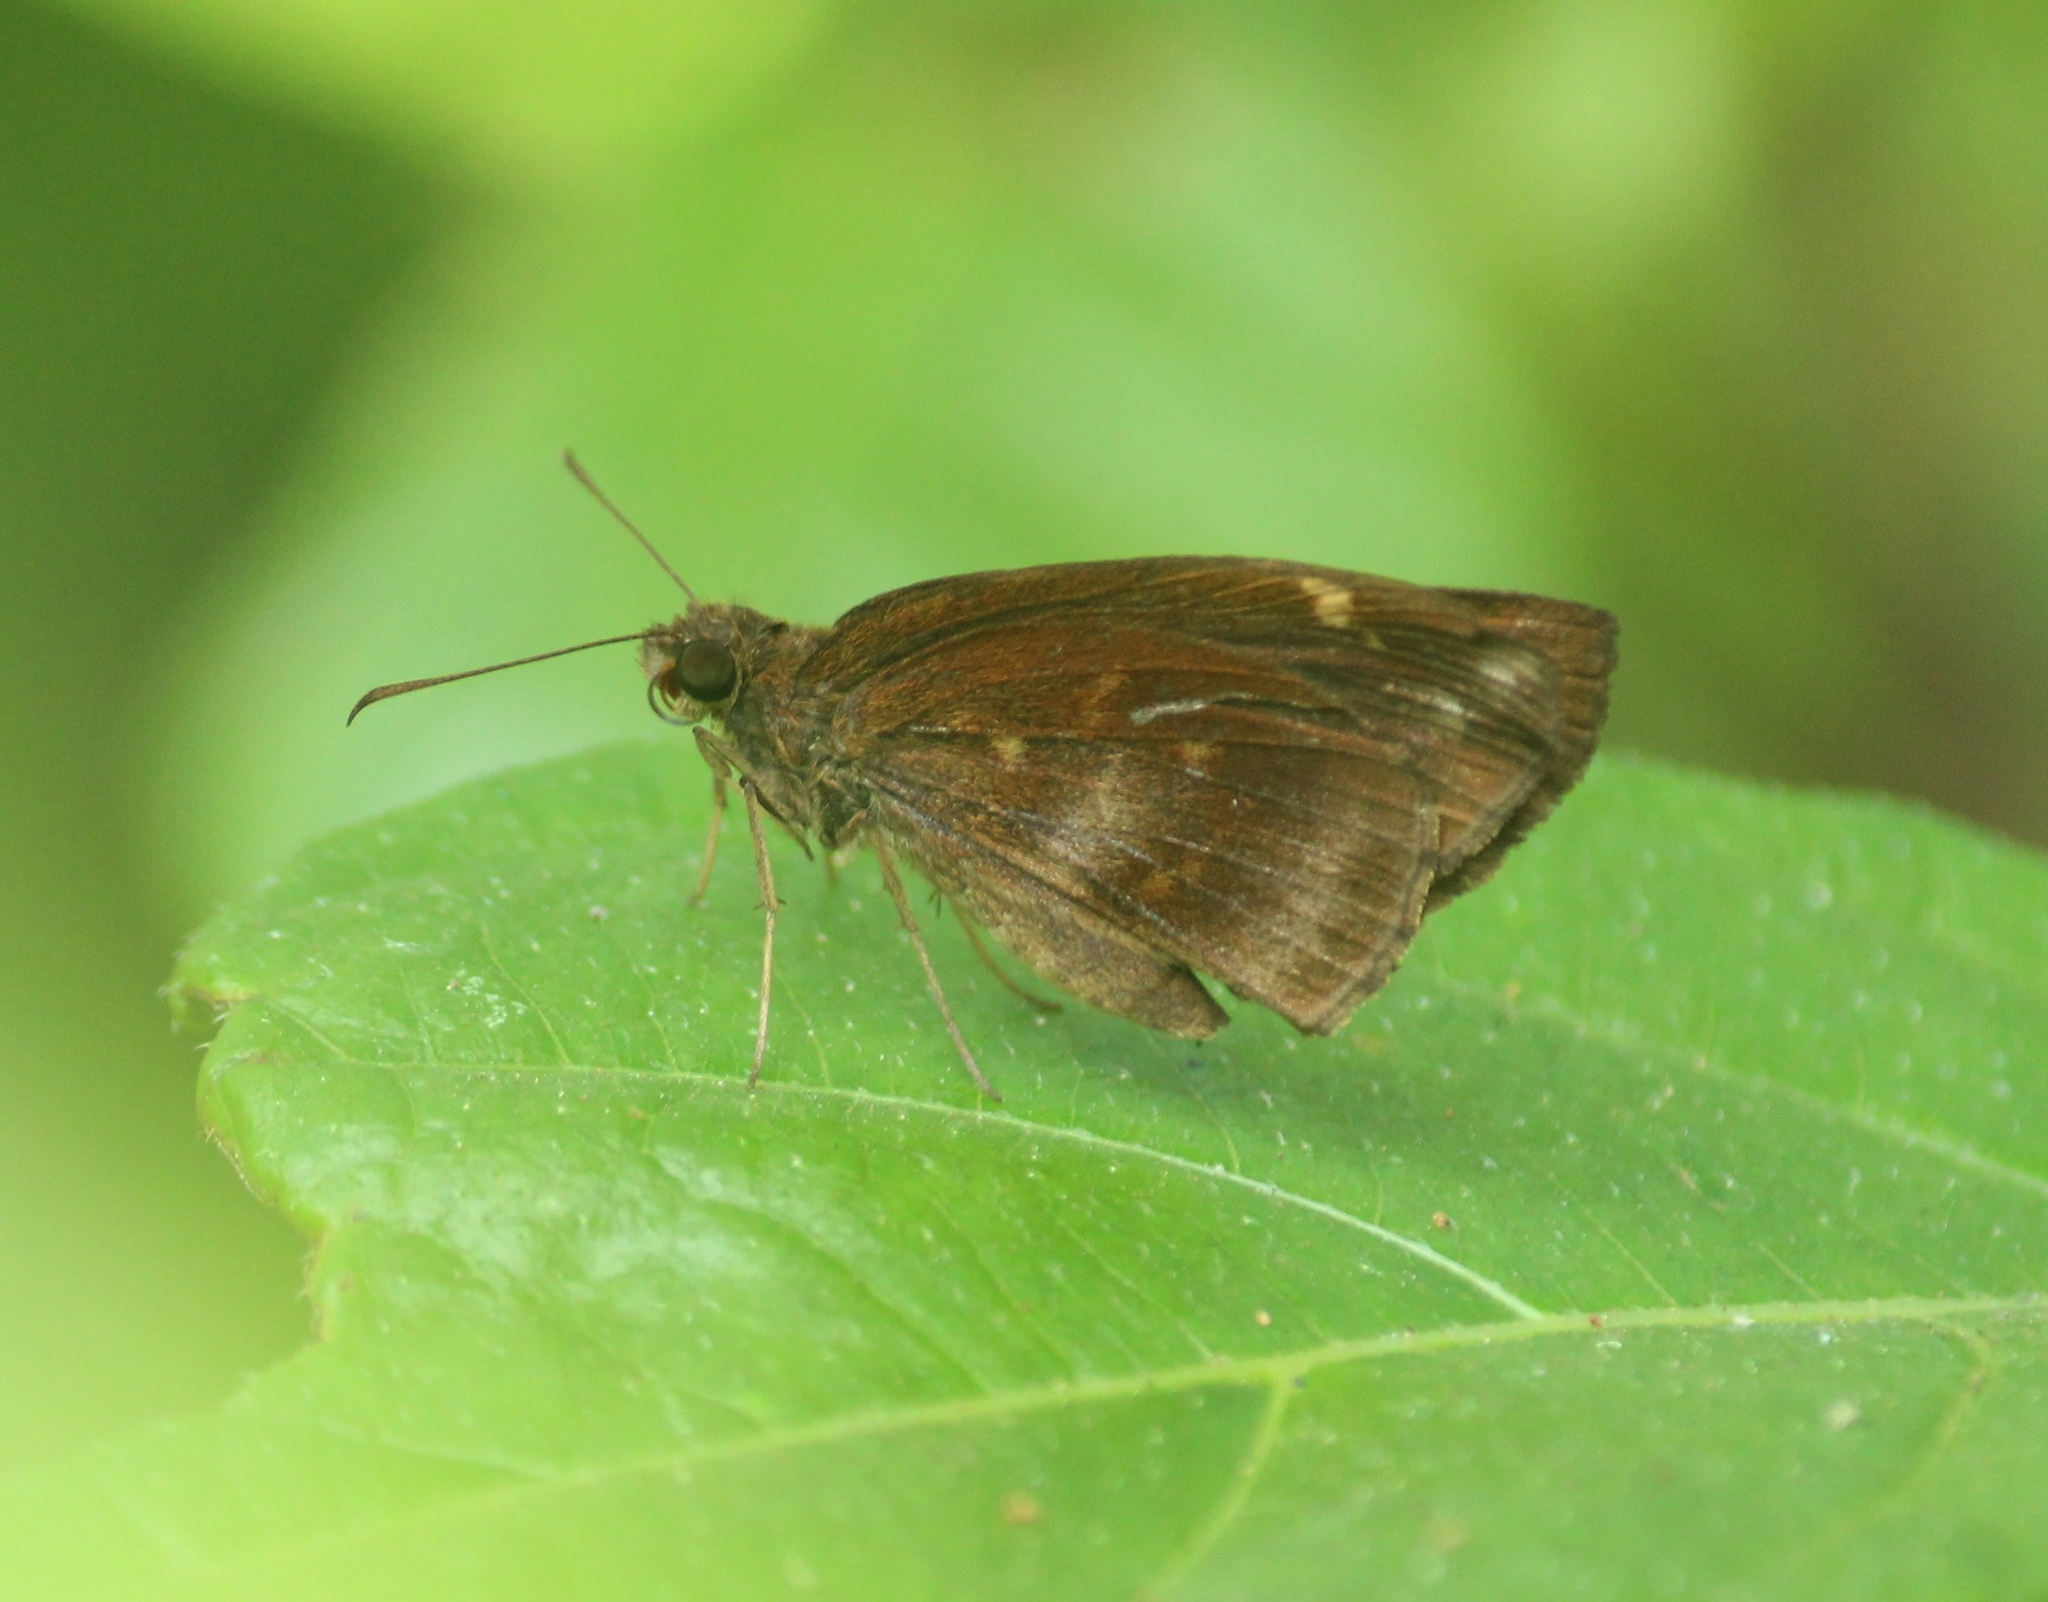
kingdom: Animalia
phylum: Arthropoda
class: Insecta
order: Lepidoptera
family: Hesperiidae
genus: Psolos
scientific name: Psolos fuligo
